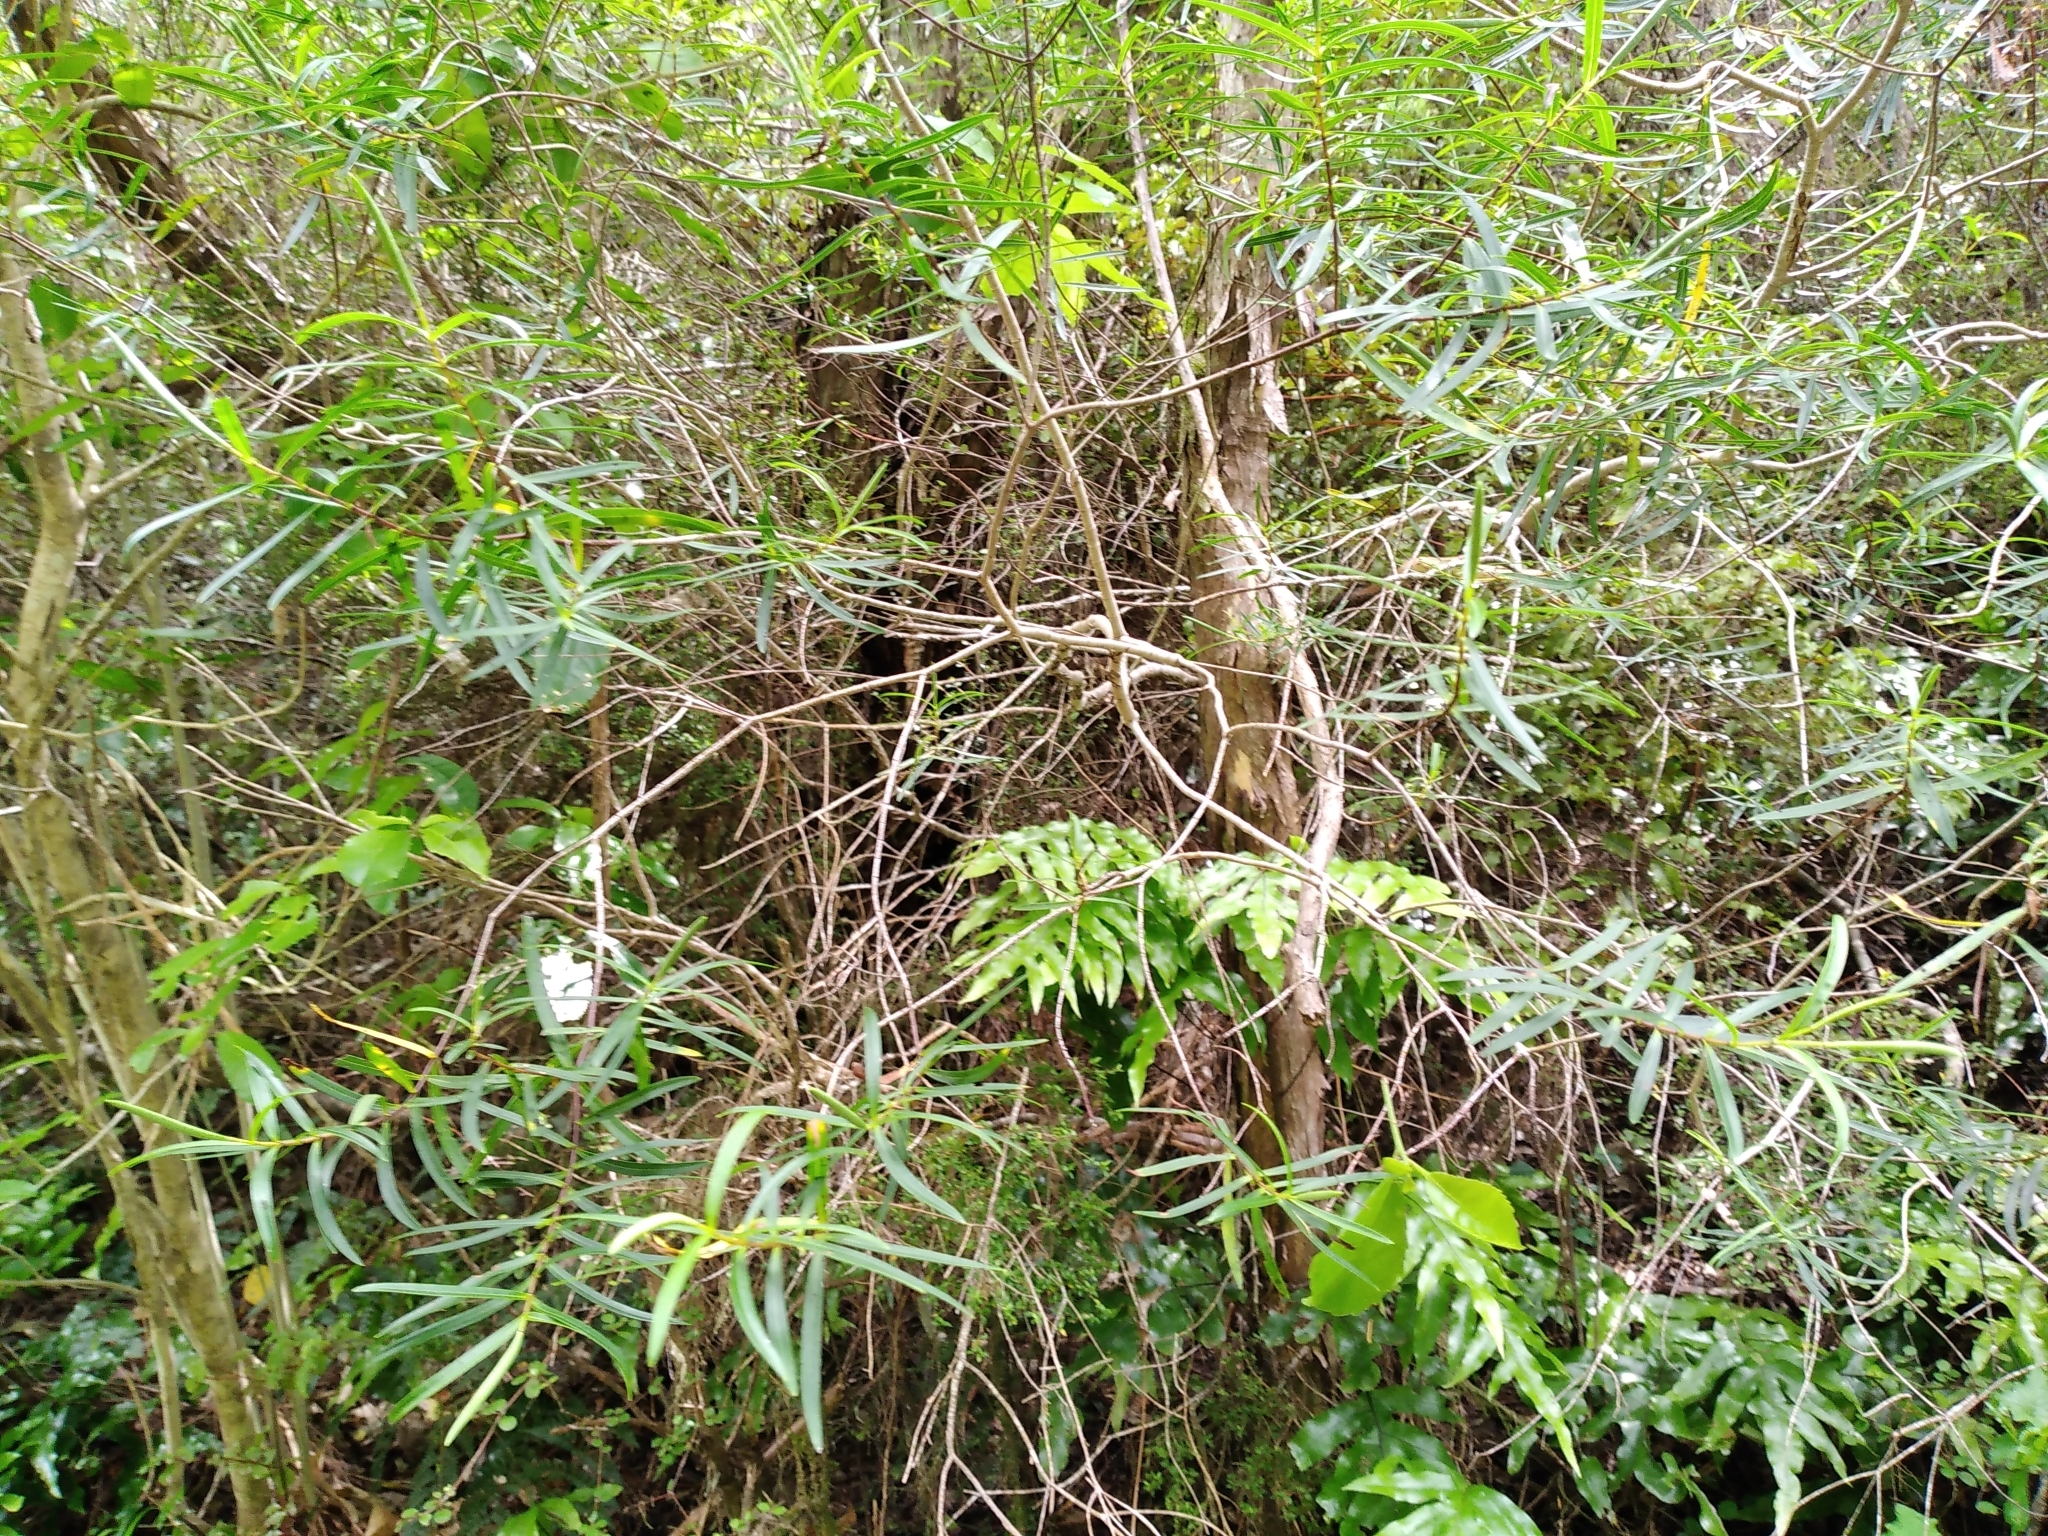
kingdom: Plantae
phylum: Tracheophyta
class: Magnoliopsida
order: Lamiales
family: Plantaginaceae
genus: Veronica
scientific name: Veronica parviflora
